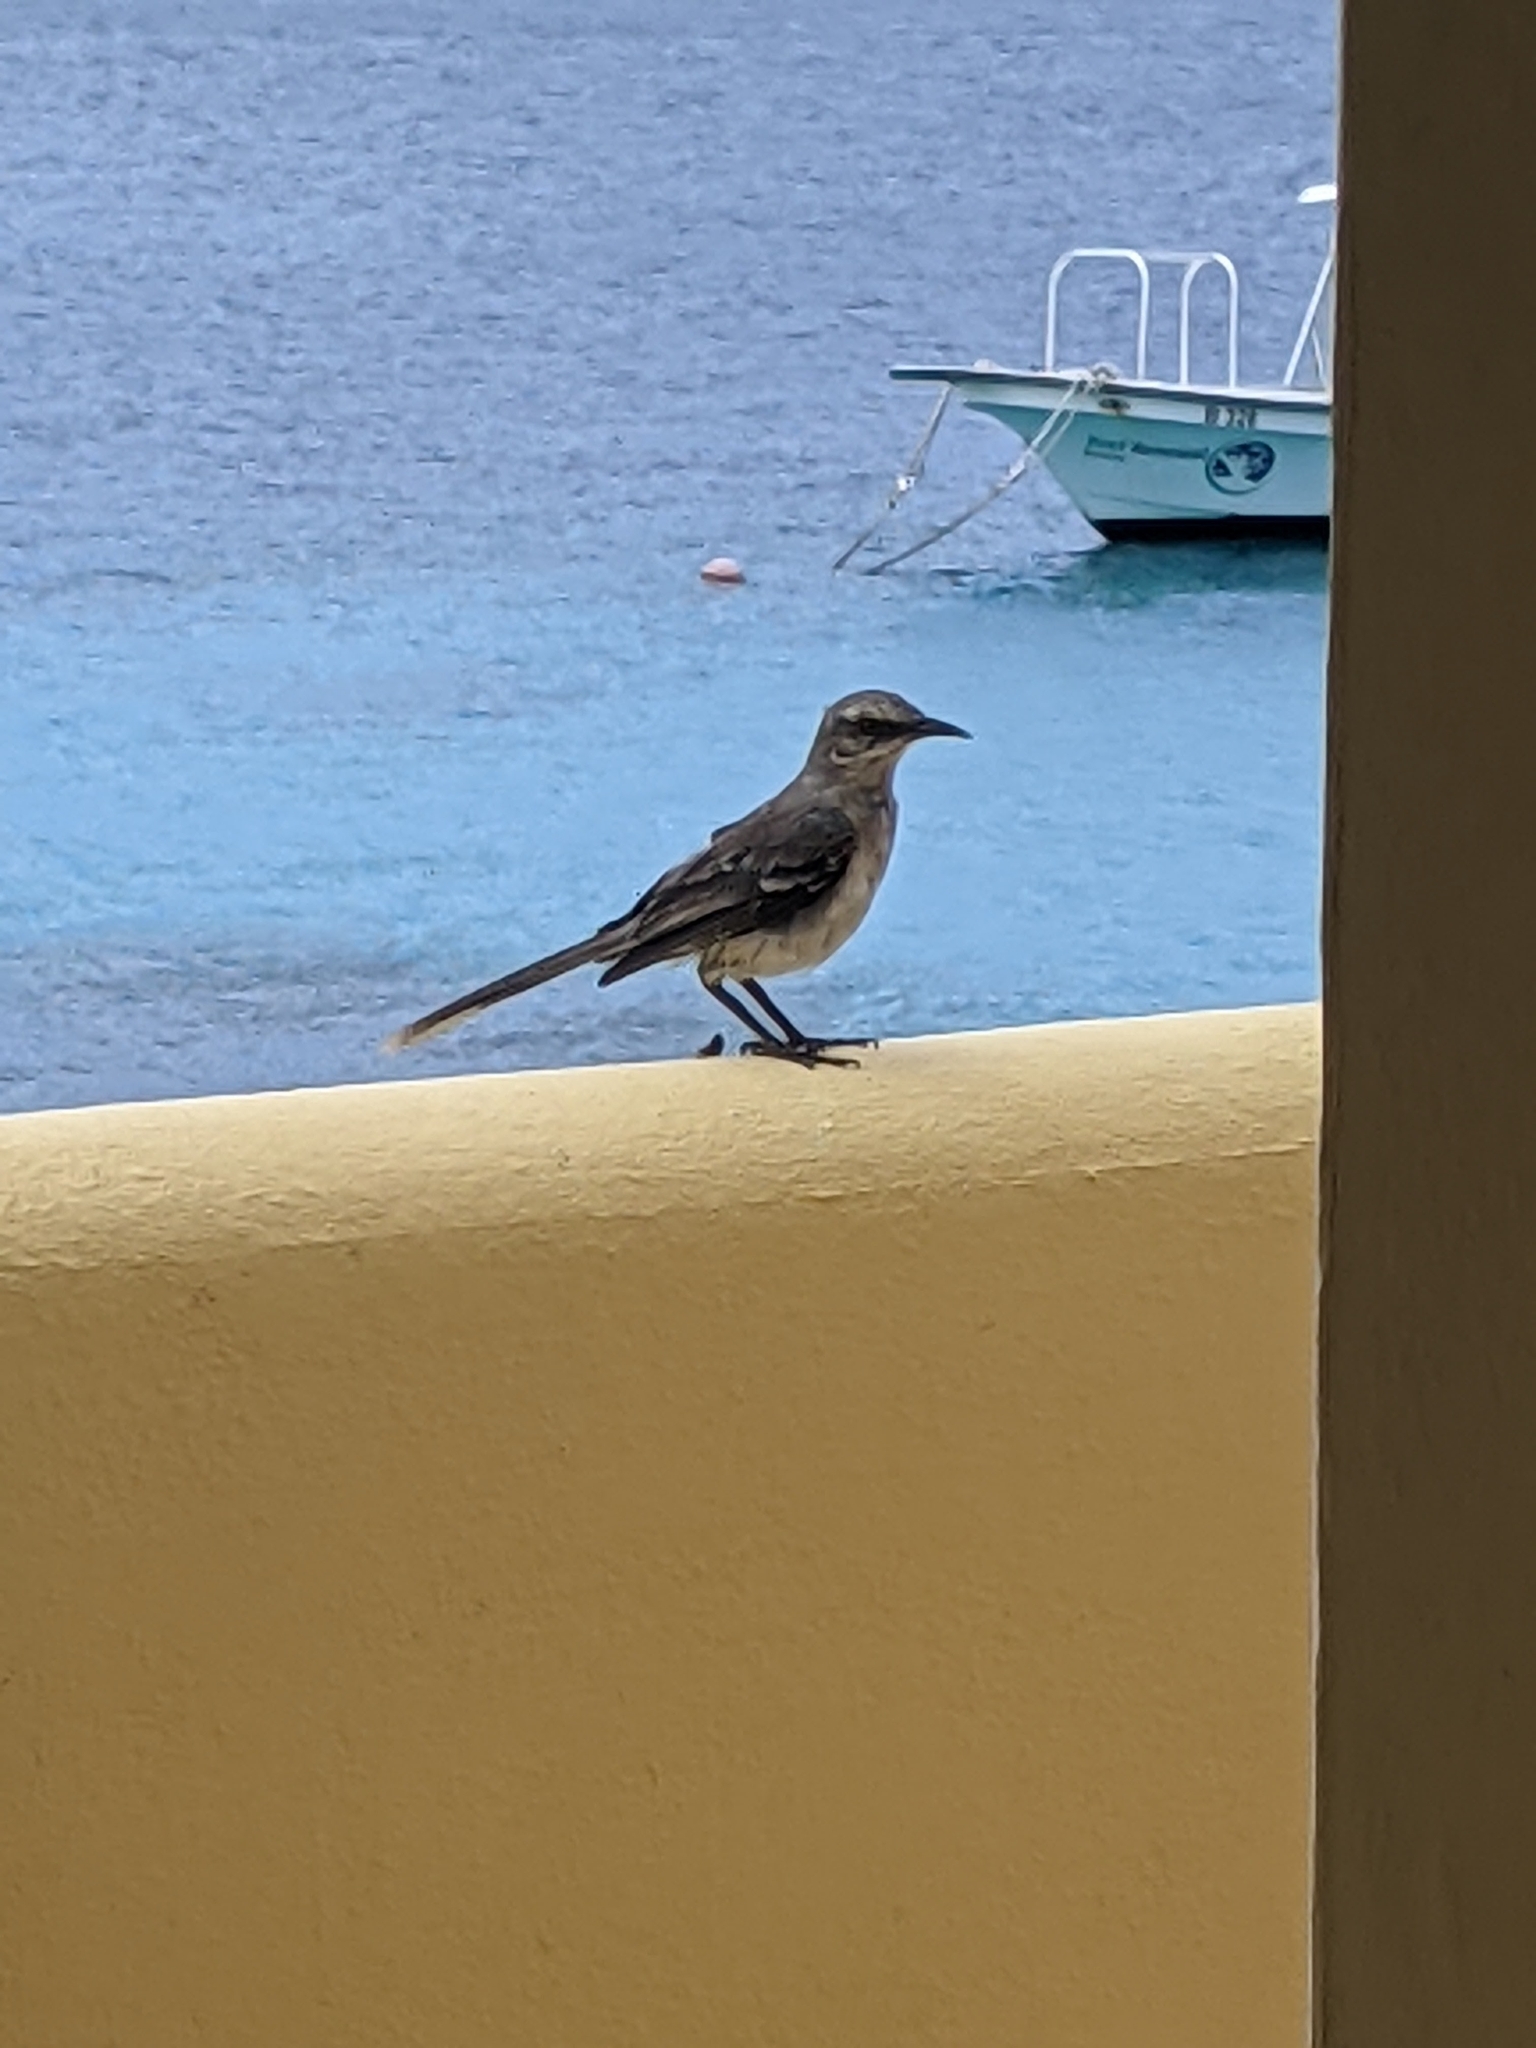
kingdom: Animalia
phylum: Chordata
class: Aves
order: Passeriformes
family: Mimidae
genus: Mimus
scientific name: Mimus gilvus
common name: Tropical mockingbird
